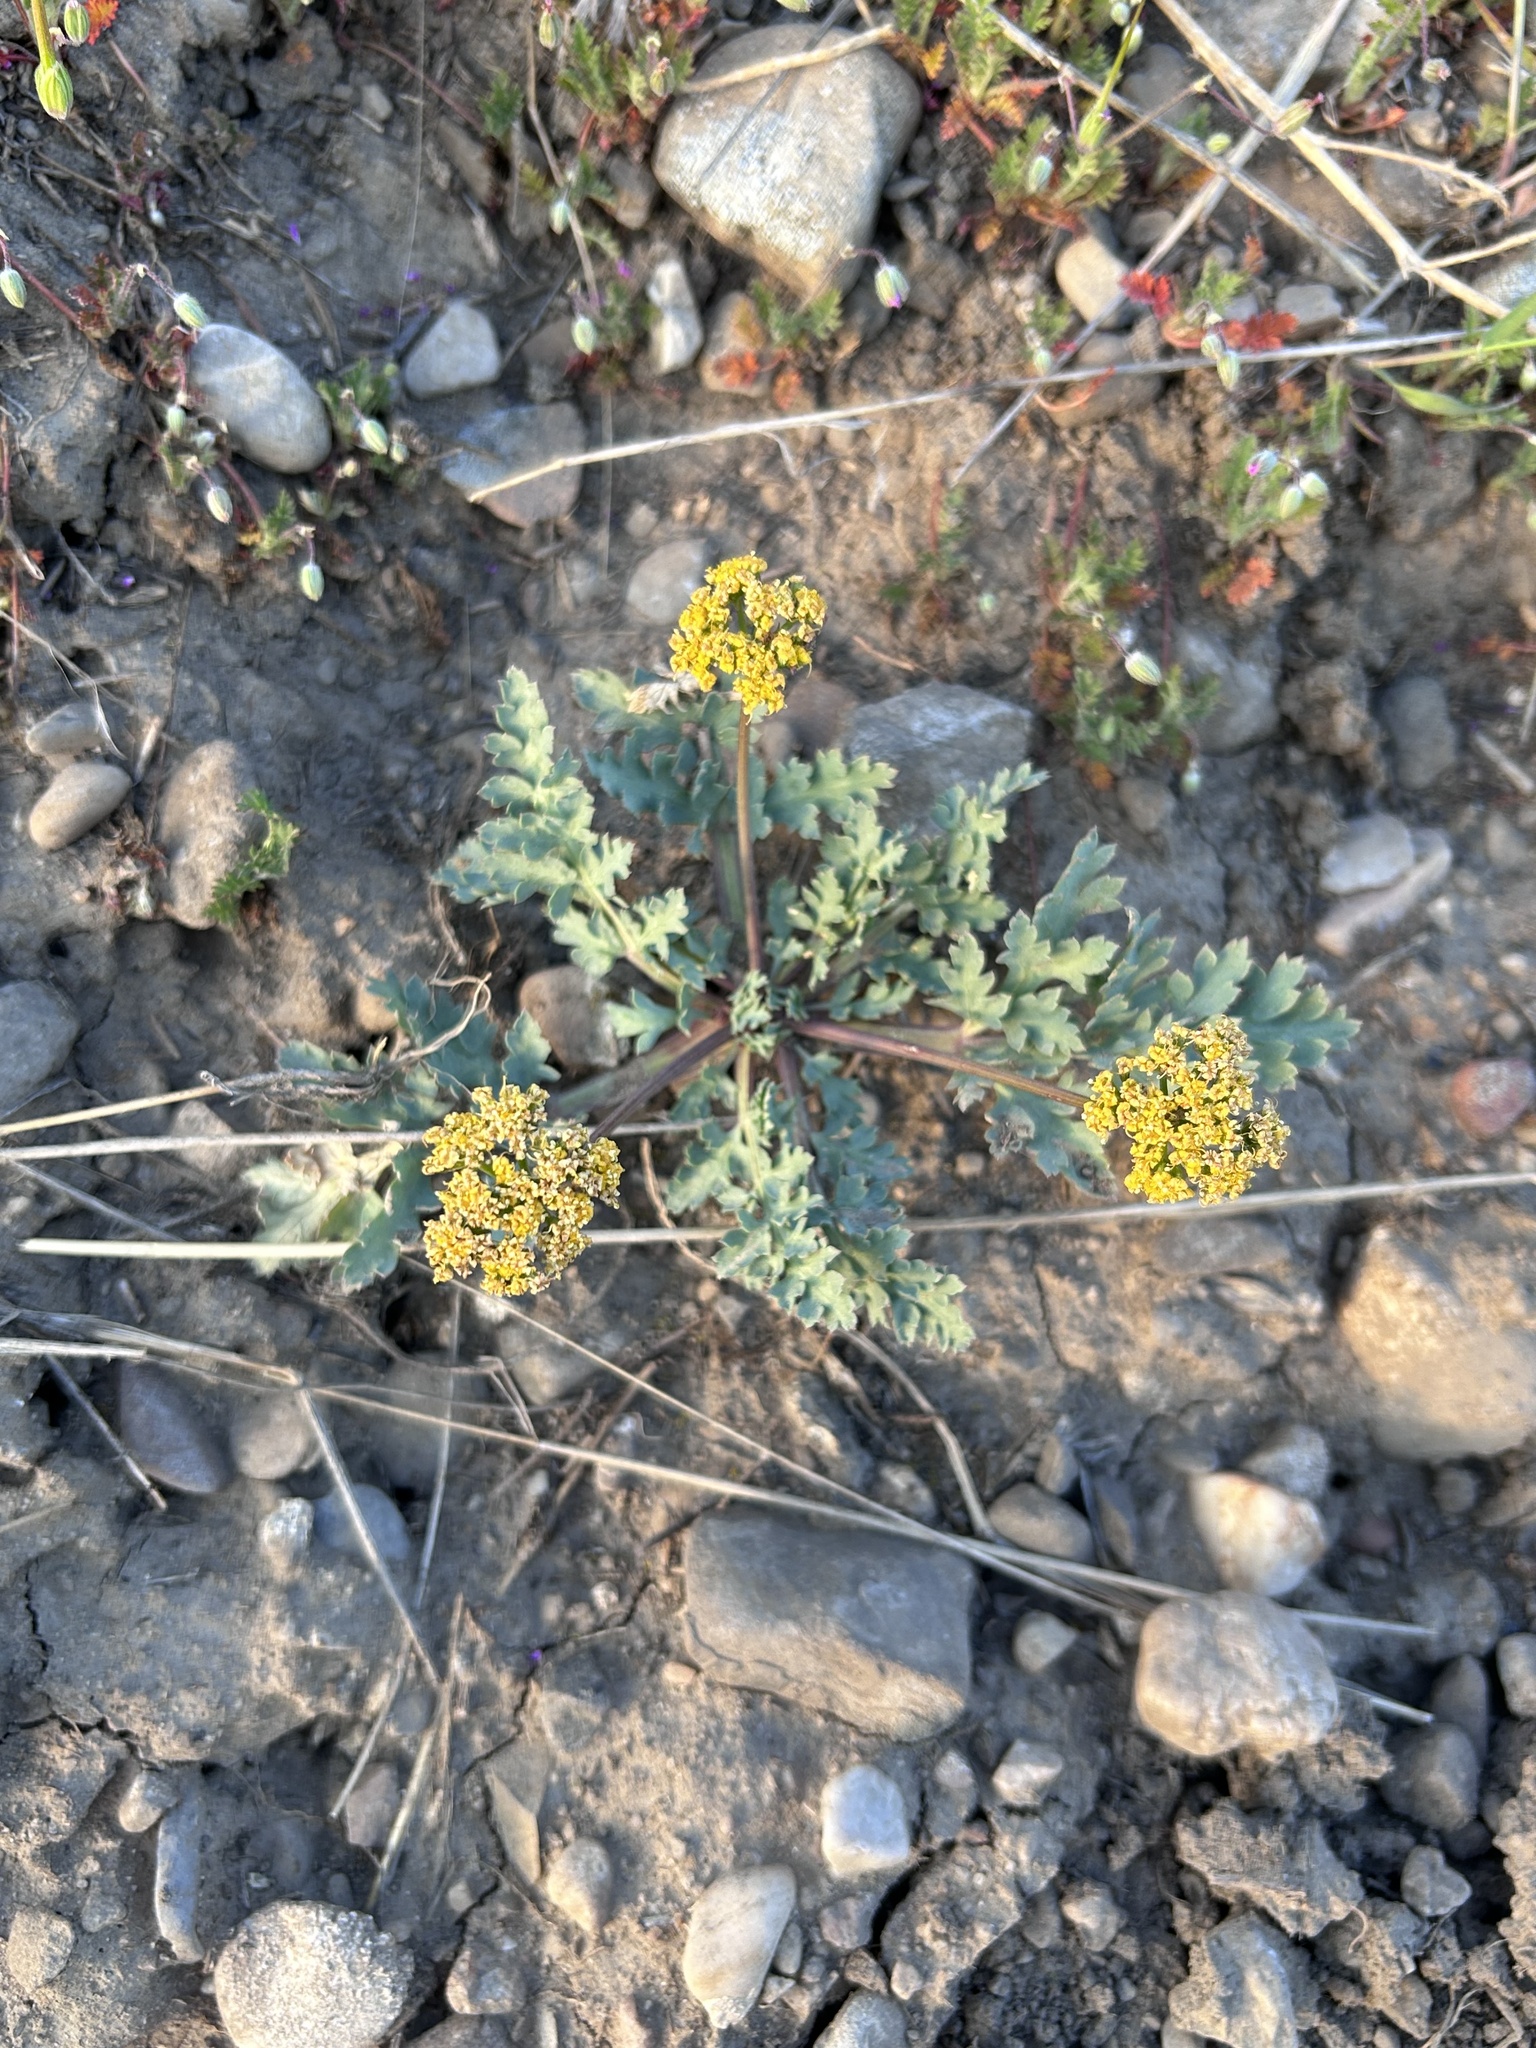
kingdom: Plantae
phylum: Tracheophyta
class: Magnoliopsida
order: Apiales
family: Apiaceae
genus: Aulospermum
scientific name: Aulospermum longipes
